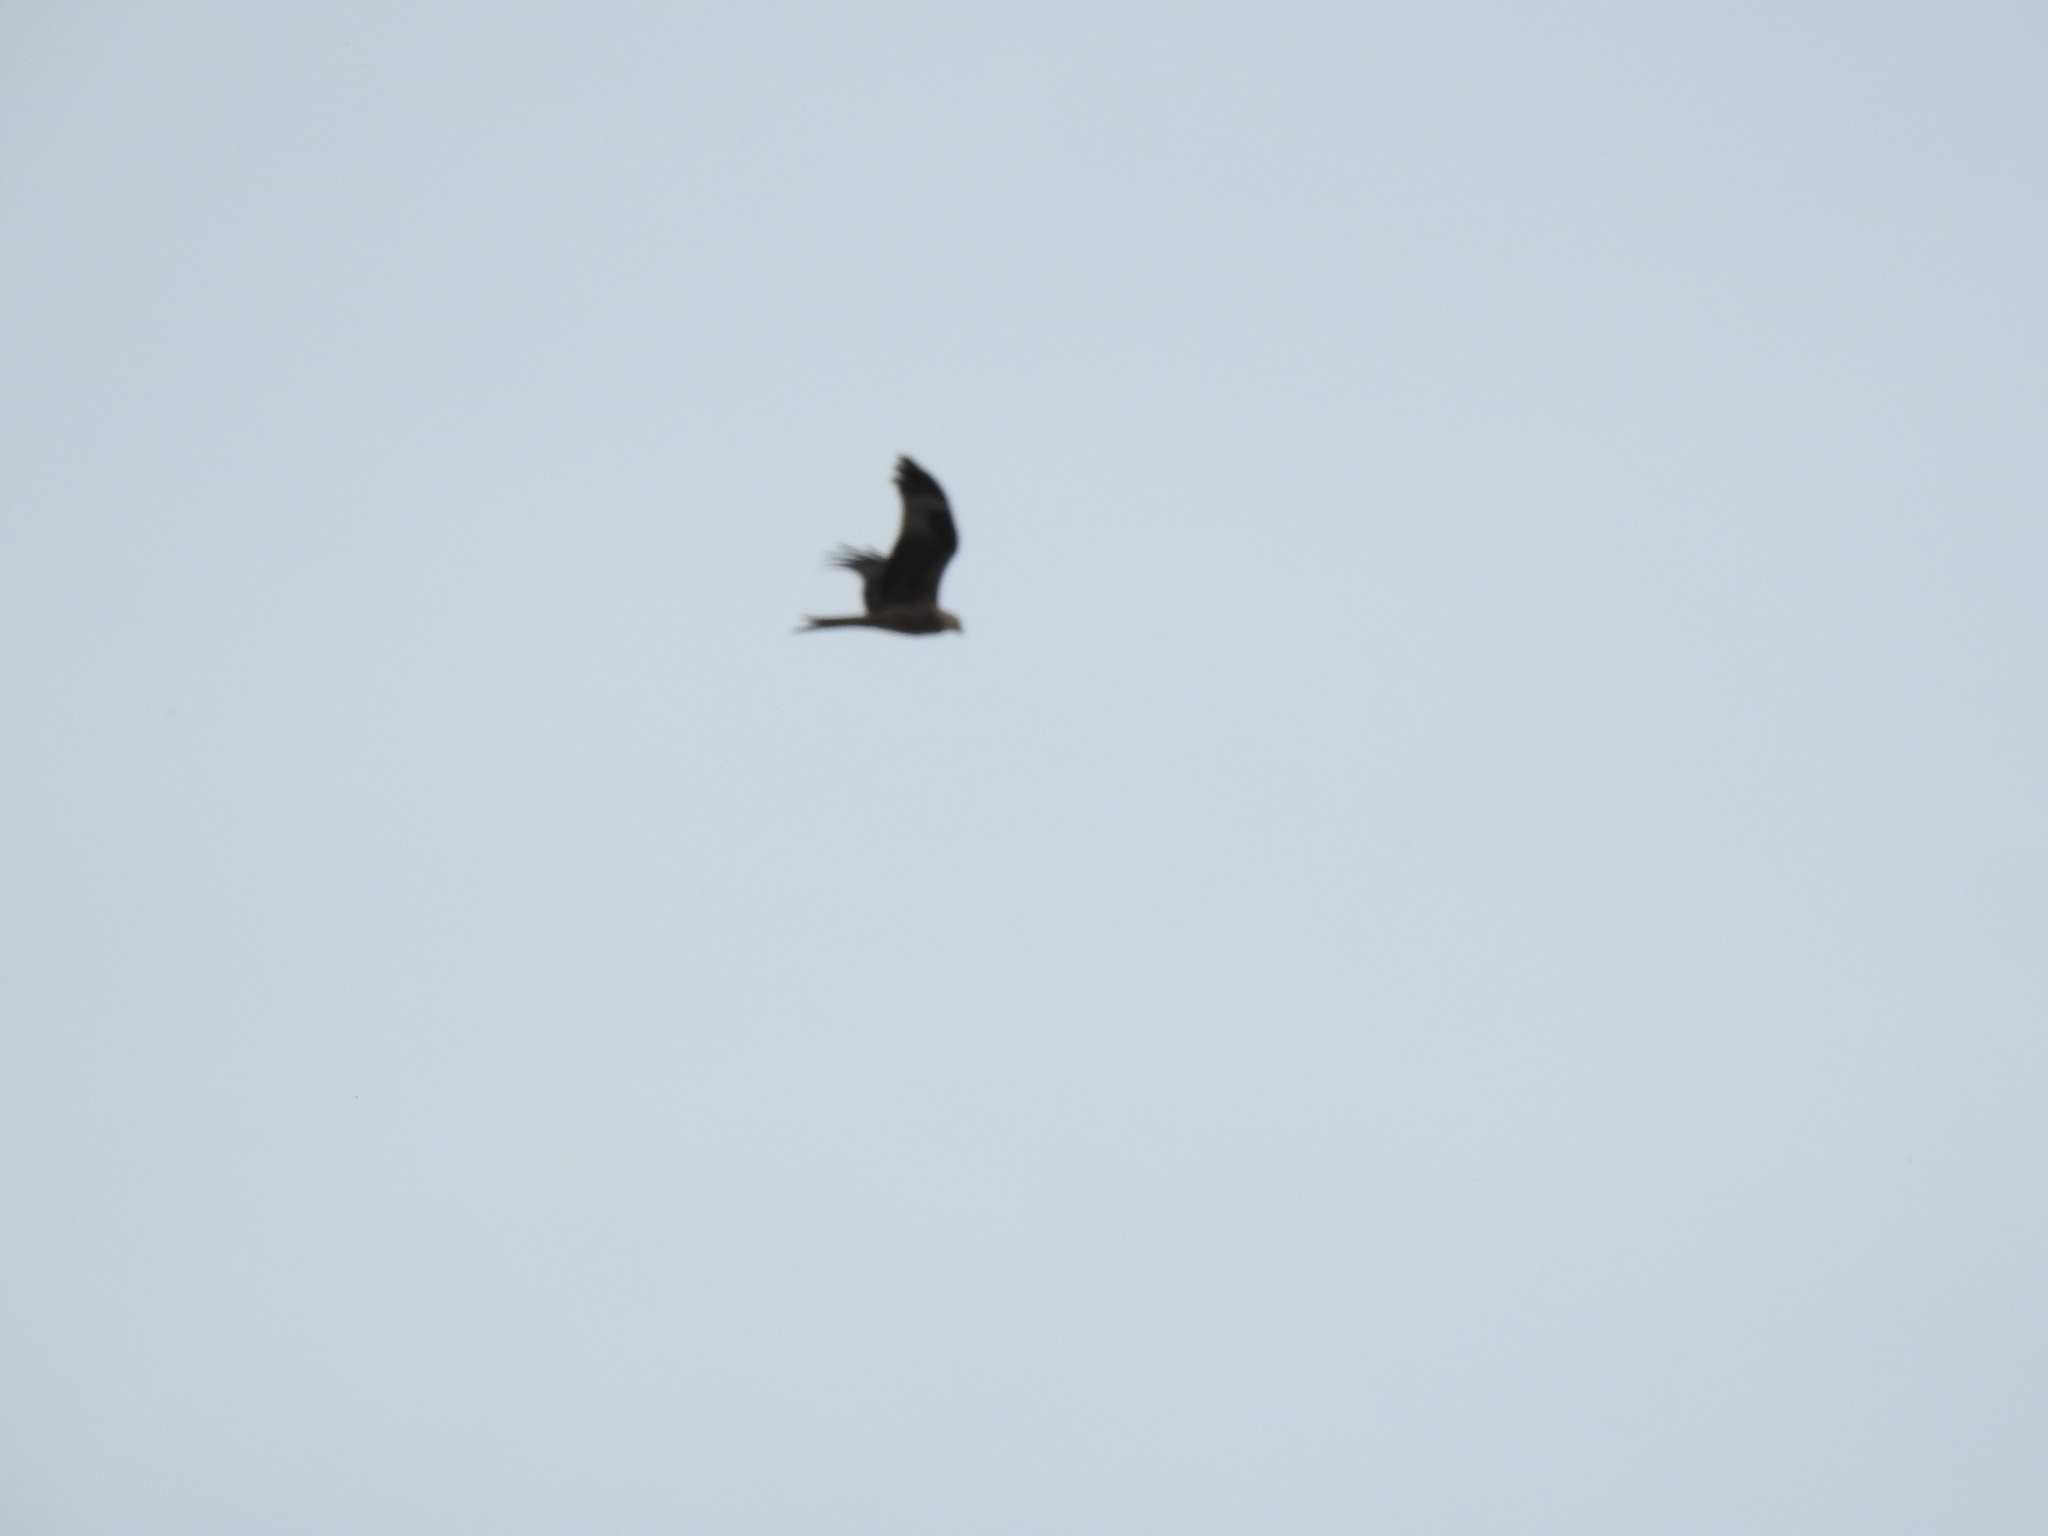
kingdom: Animalia
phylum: Chordata
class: Aves
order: Accipitriformes
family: Accipitridae
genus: Milvus
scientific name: Milvus milvus
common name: Red kite
